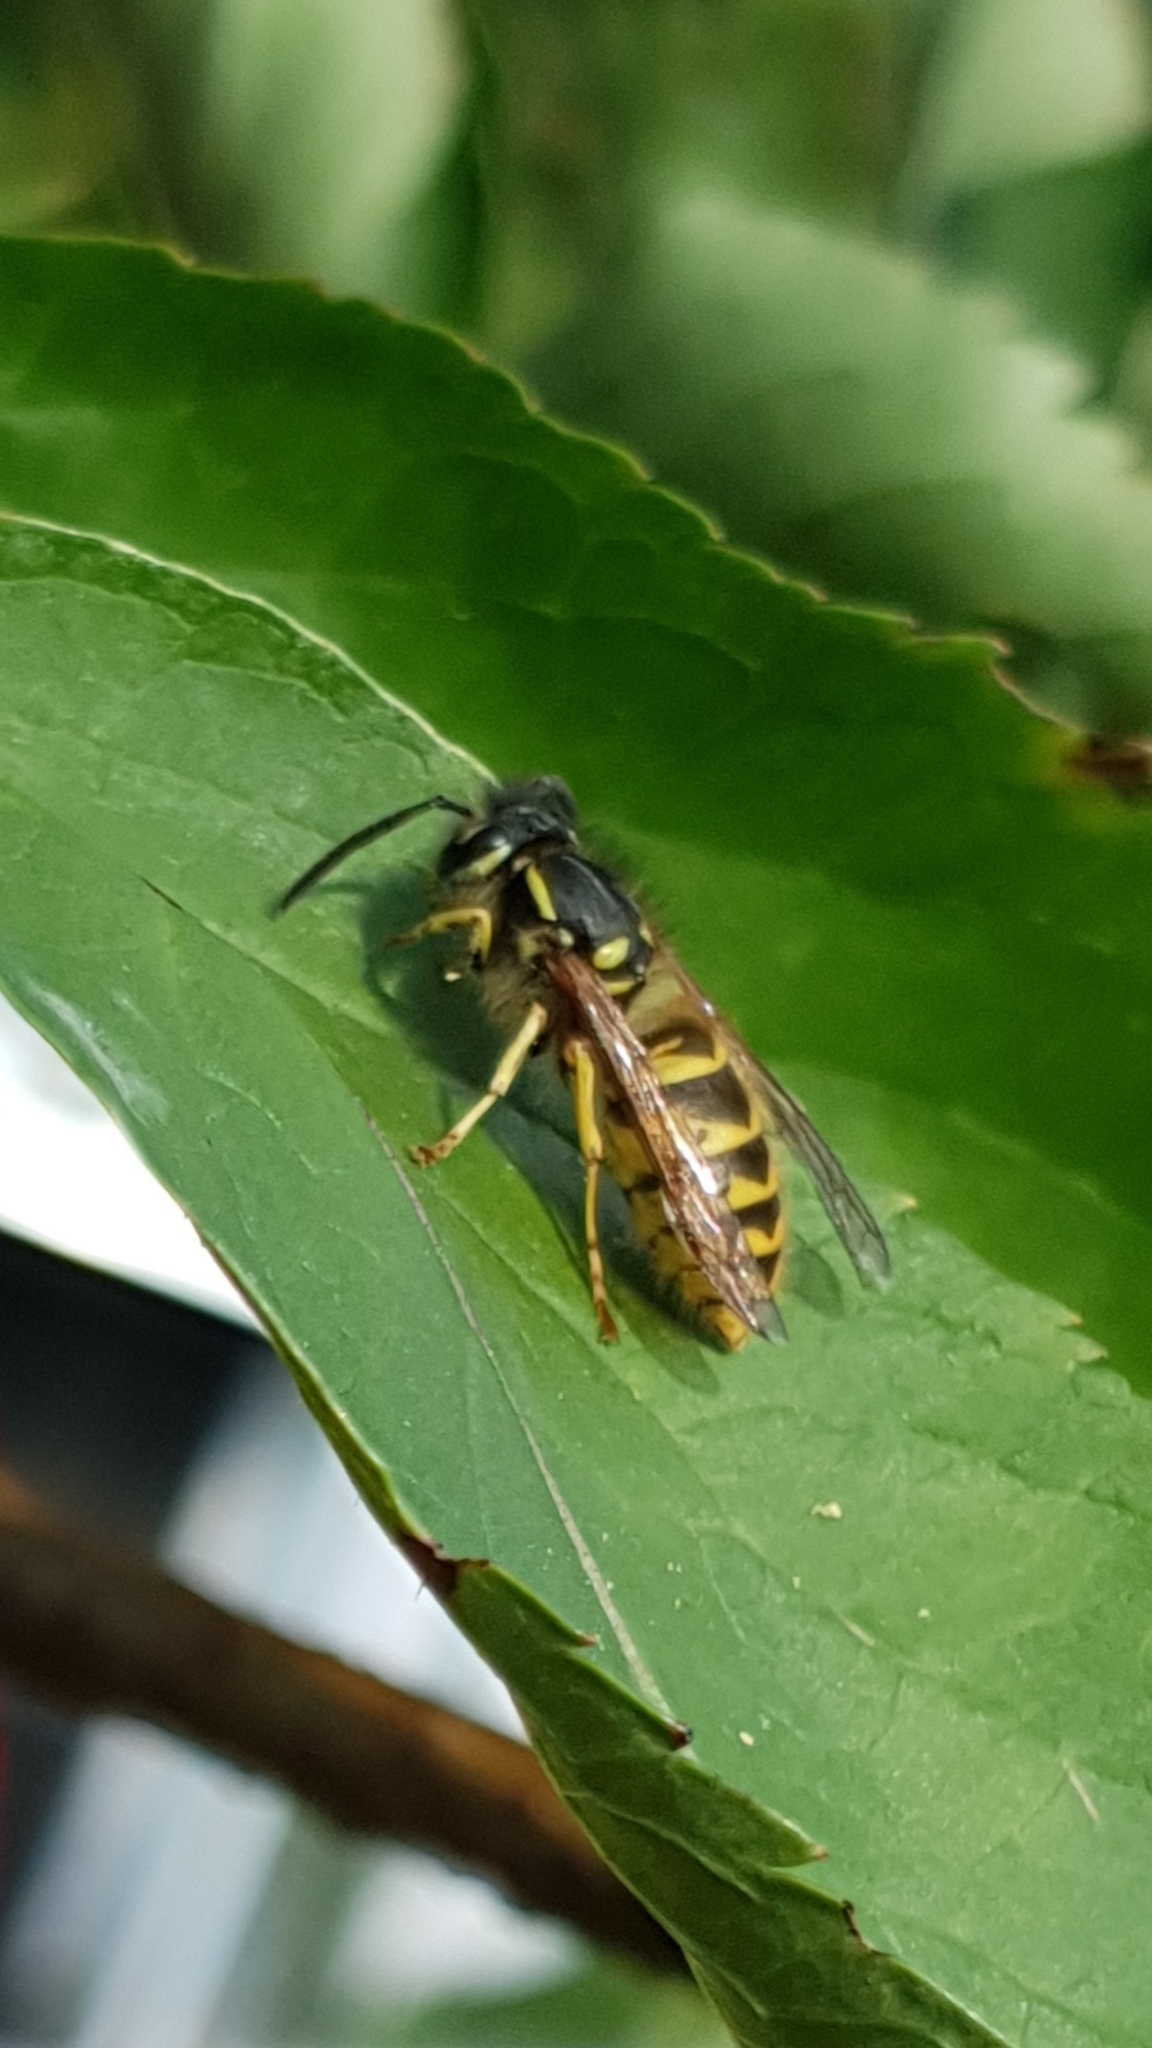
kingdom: Animalia
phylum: Arthropoda
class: Insecta
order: Hymenoptera
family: Vespidae
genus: Vespula
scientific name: Vespula vulgaris
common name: Common wasp
